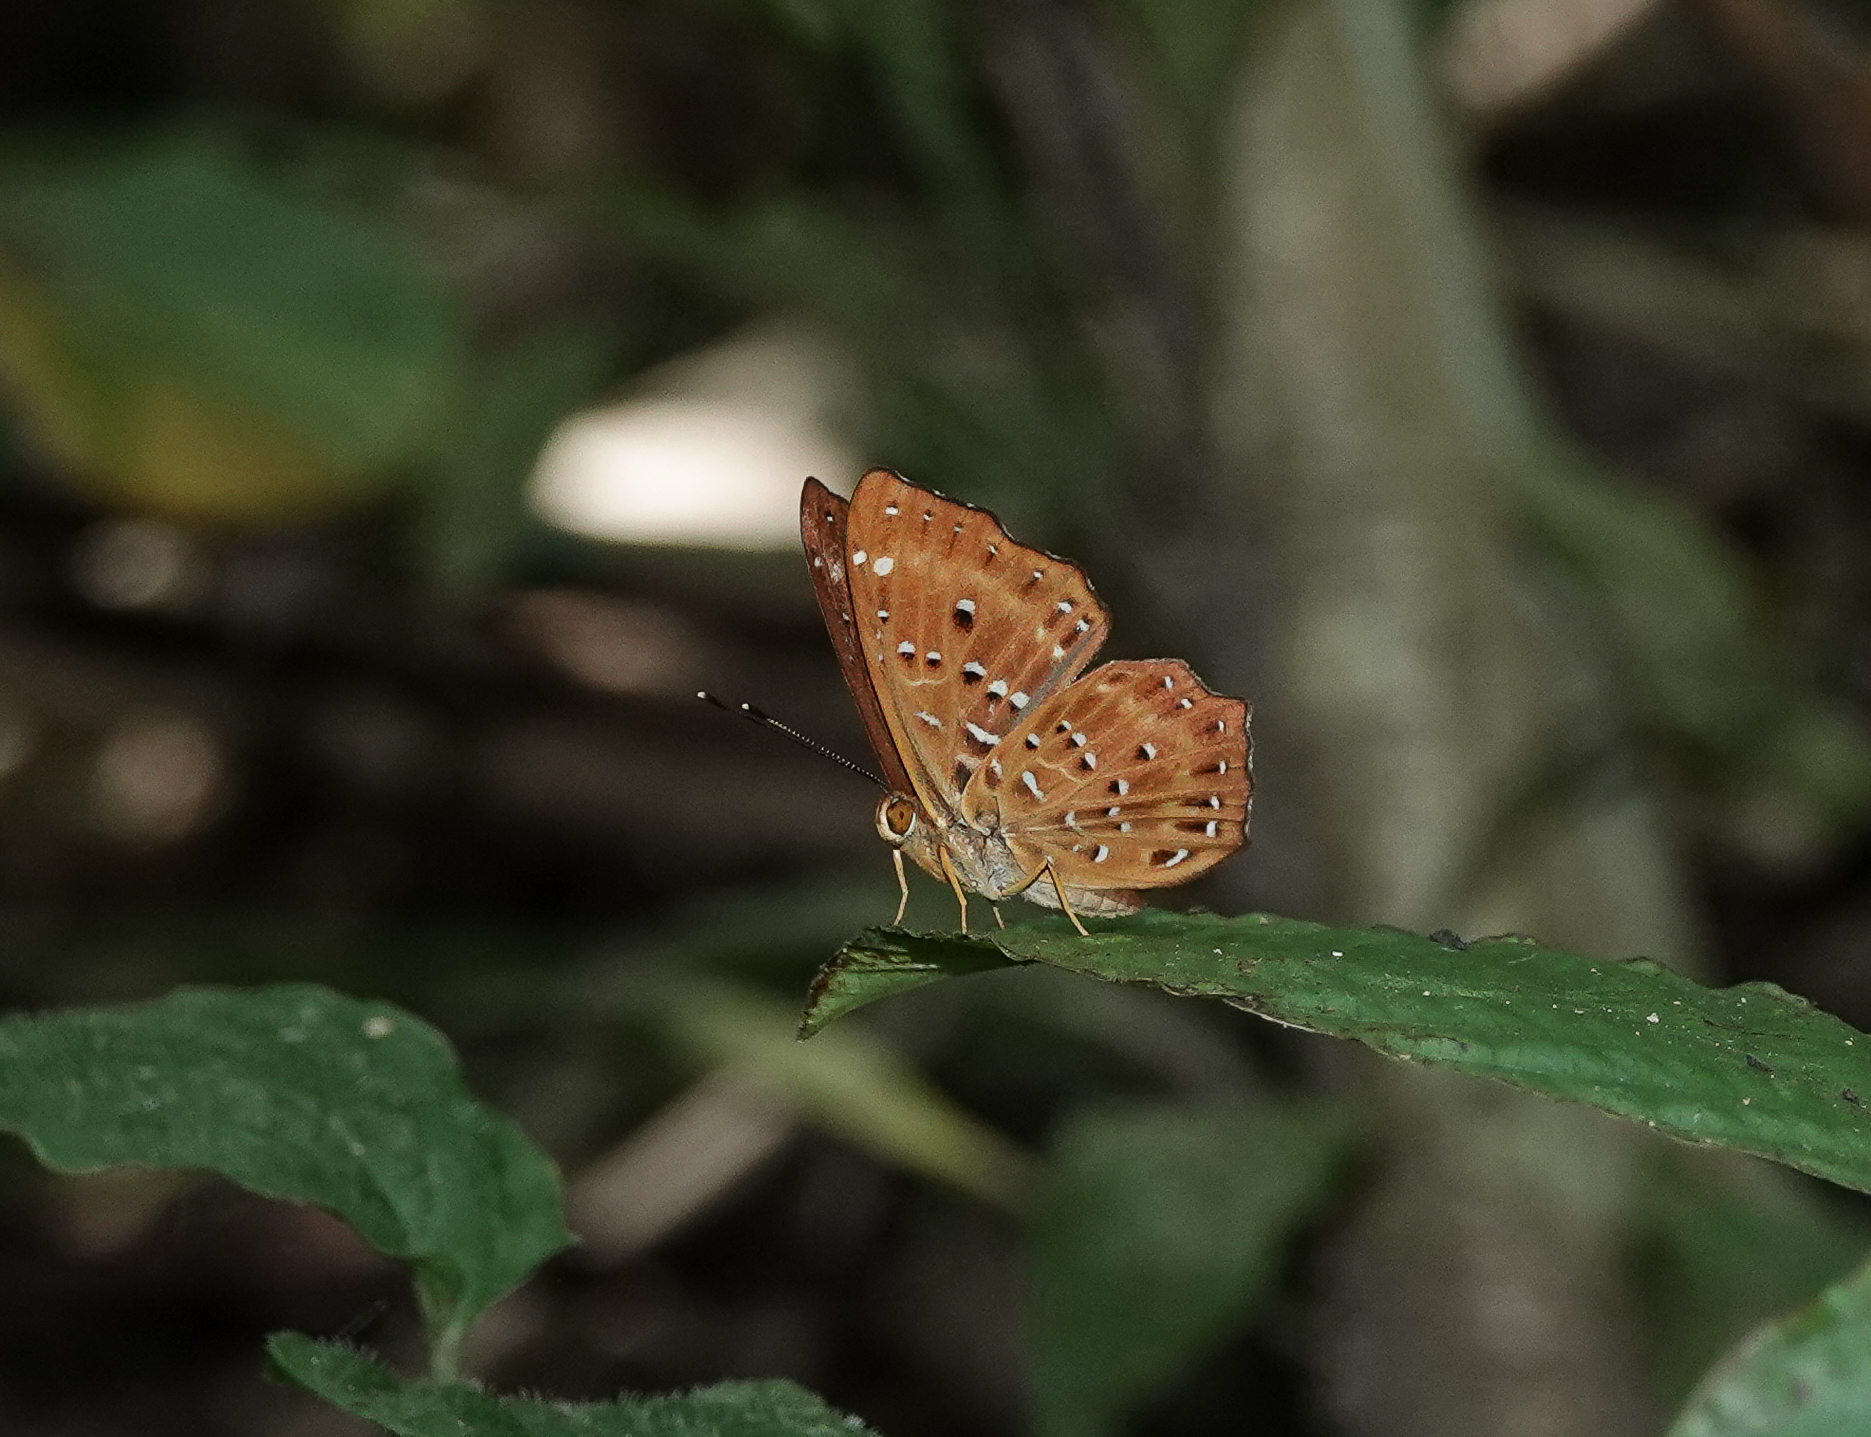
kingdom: Animalia
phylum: Arthropoda
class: Insecta
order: Lepidoptera
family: Riodinidae
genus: Zemeros
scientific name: Zemeros flegyas
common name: Punchinello
